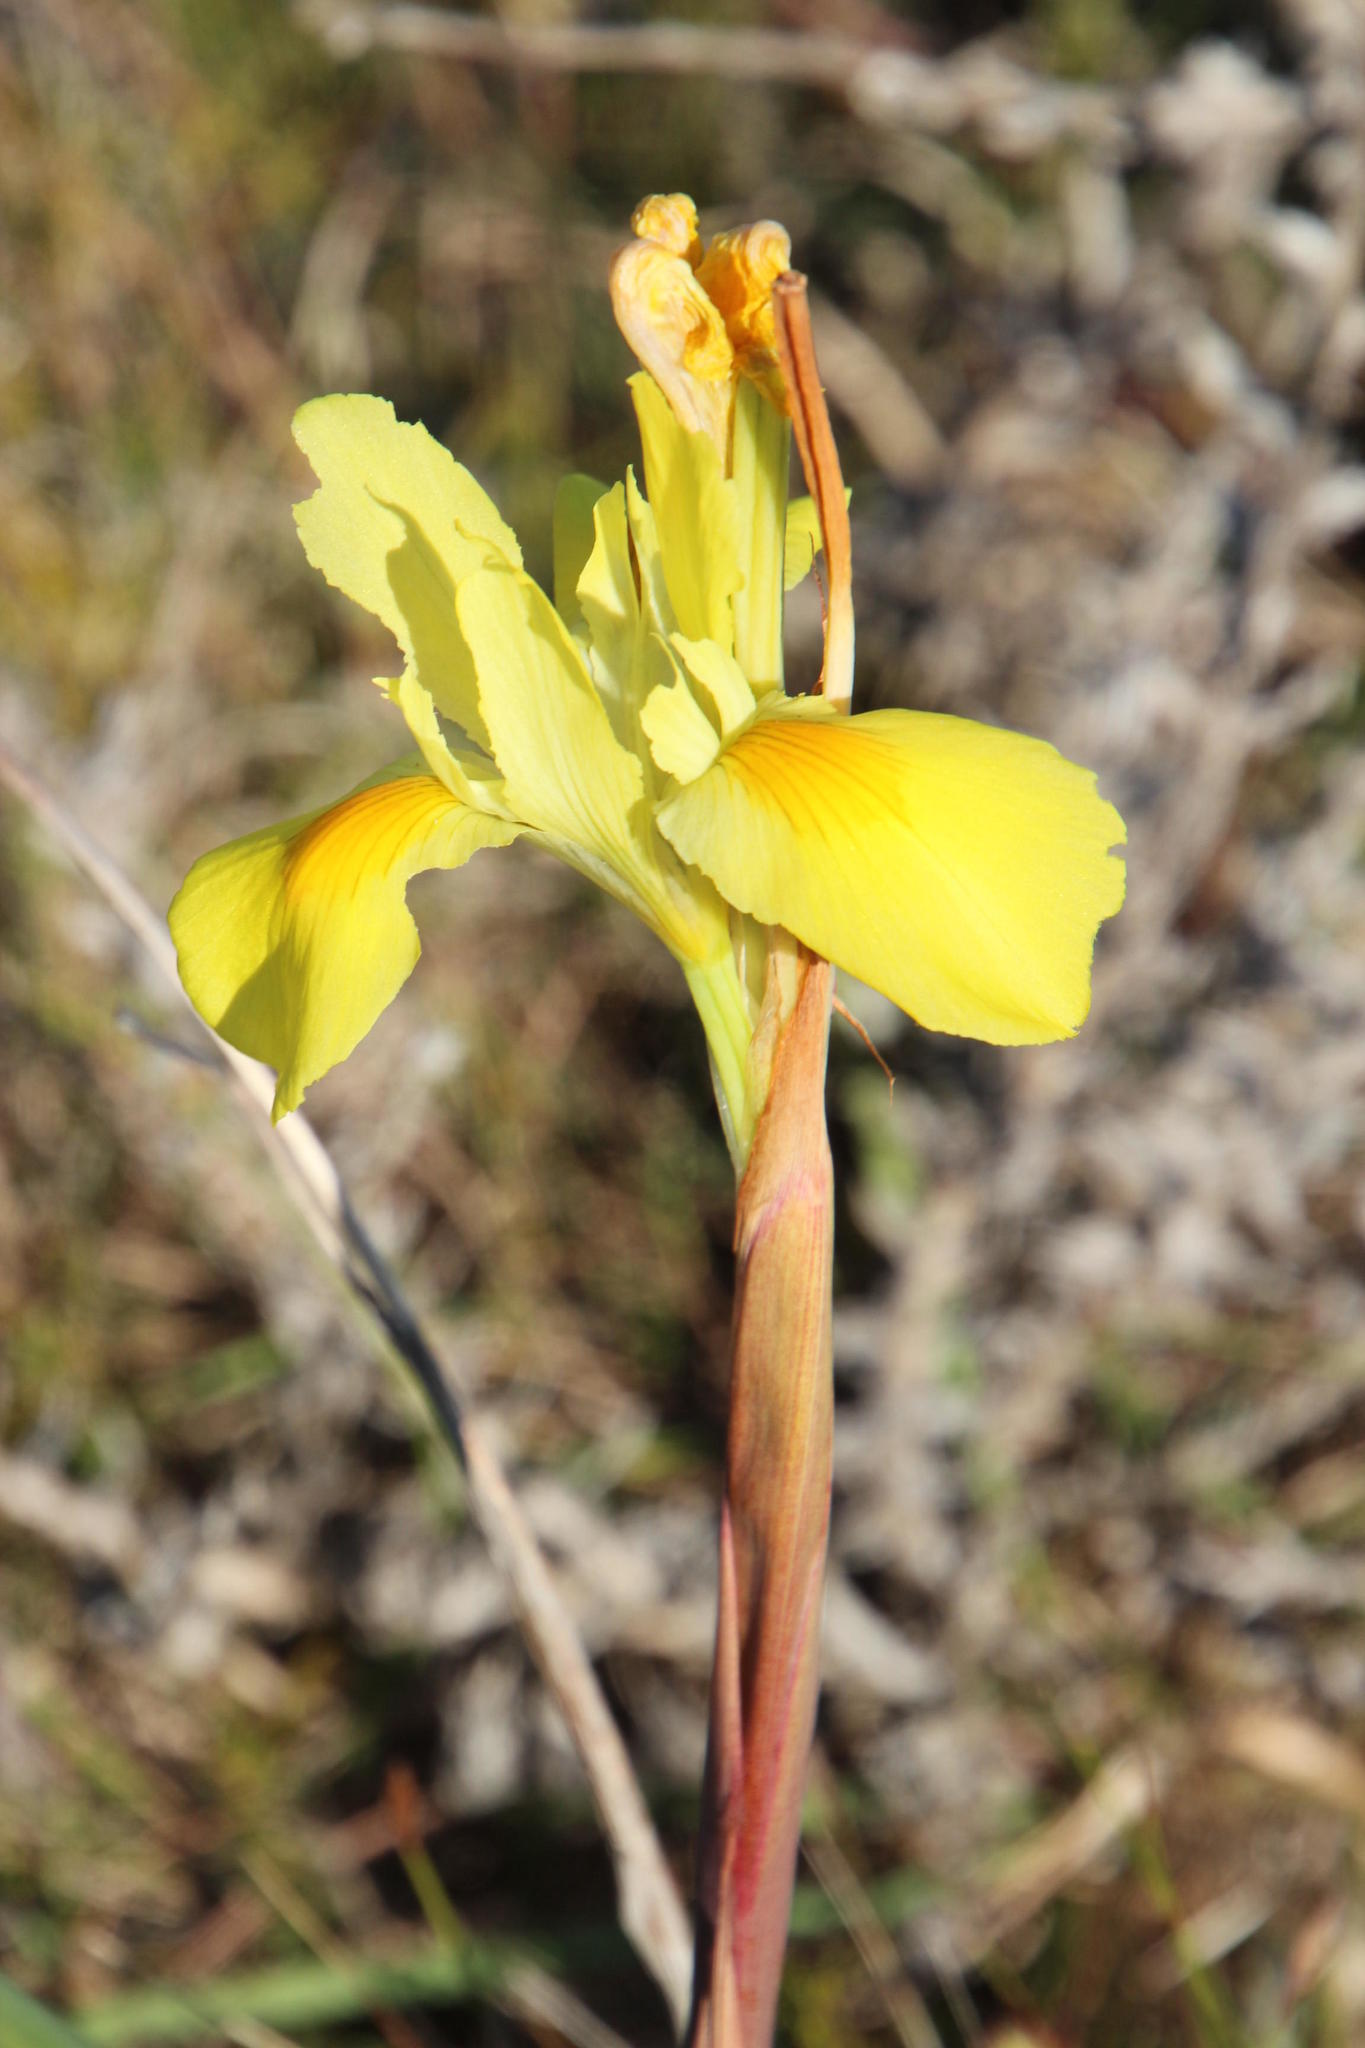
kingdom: Plantae
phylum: Tracheophyta
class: Liliopsida
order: Asparagales
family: Iridaceae
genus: Moraea
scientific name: Moraea spathulata
